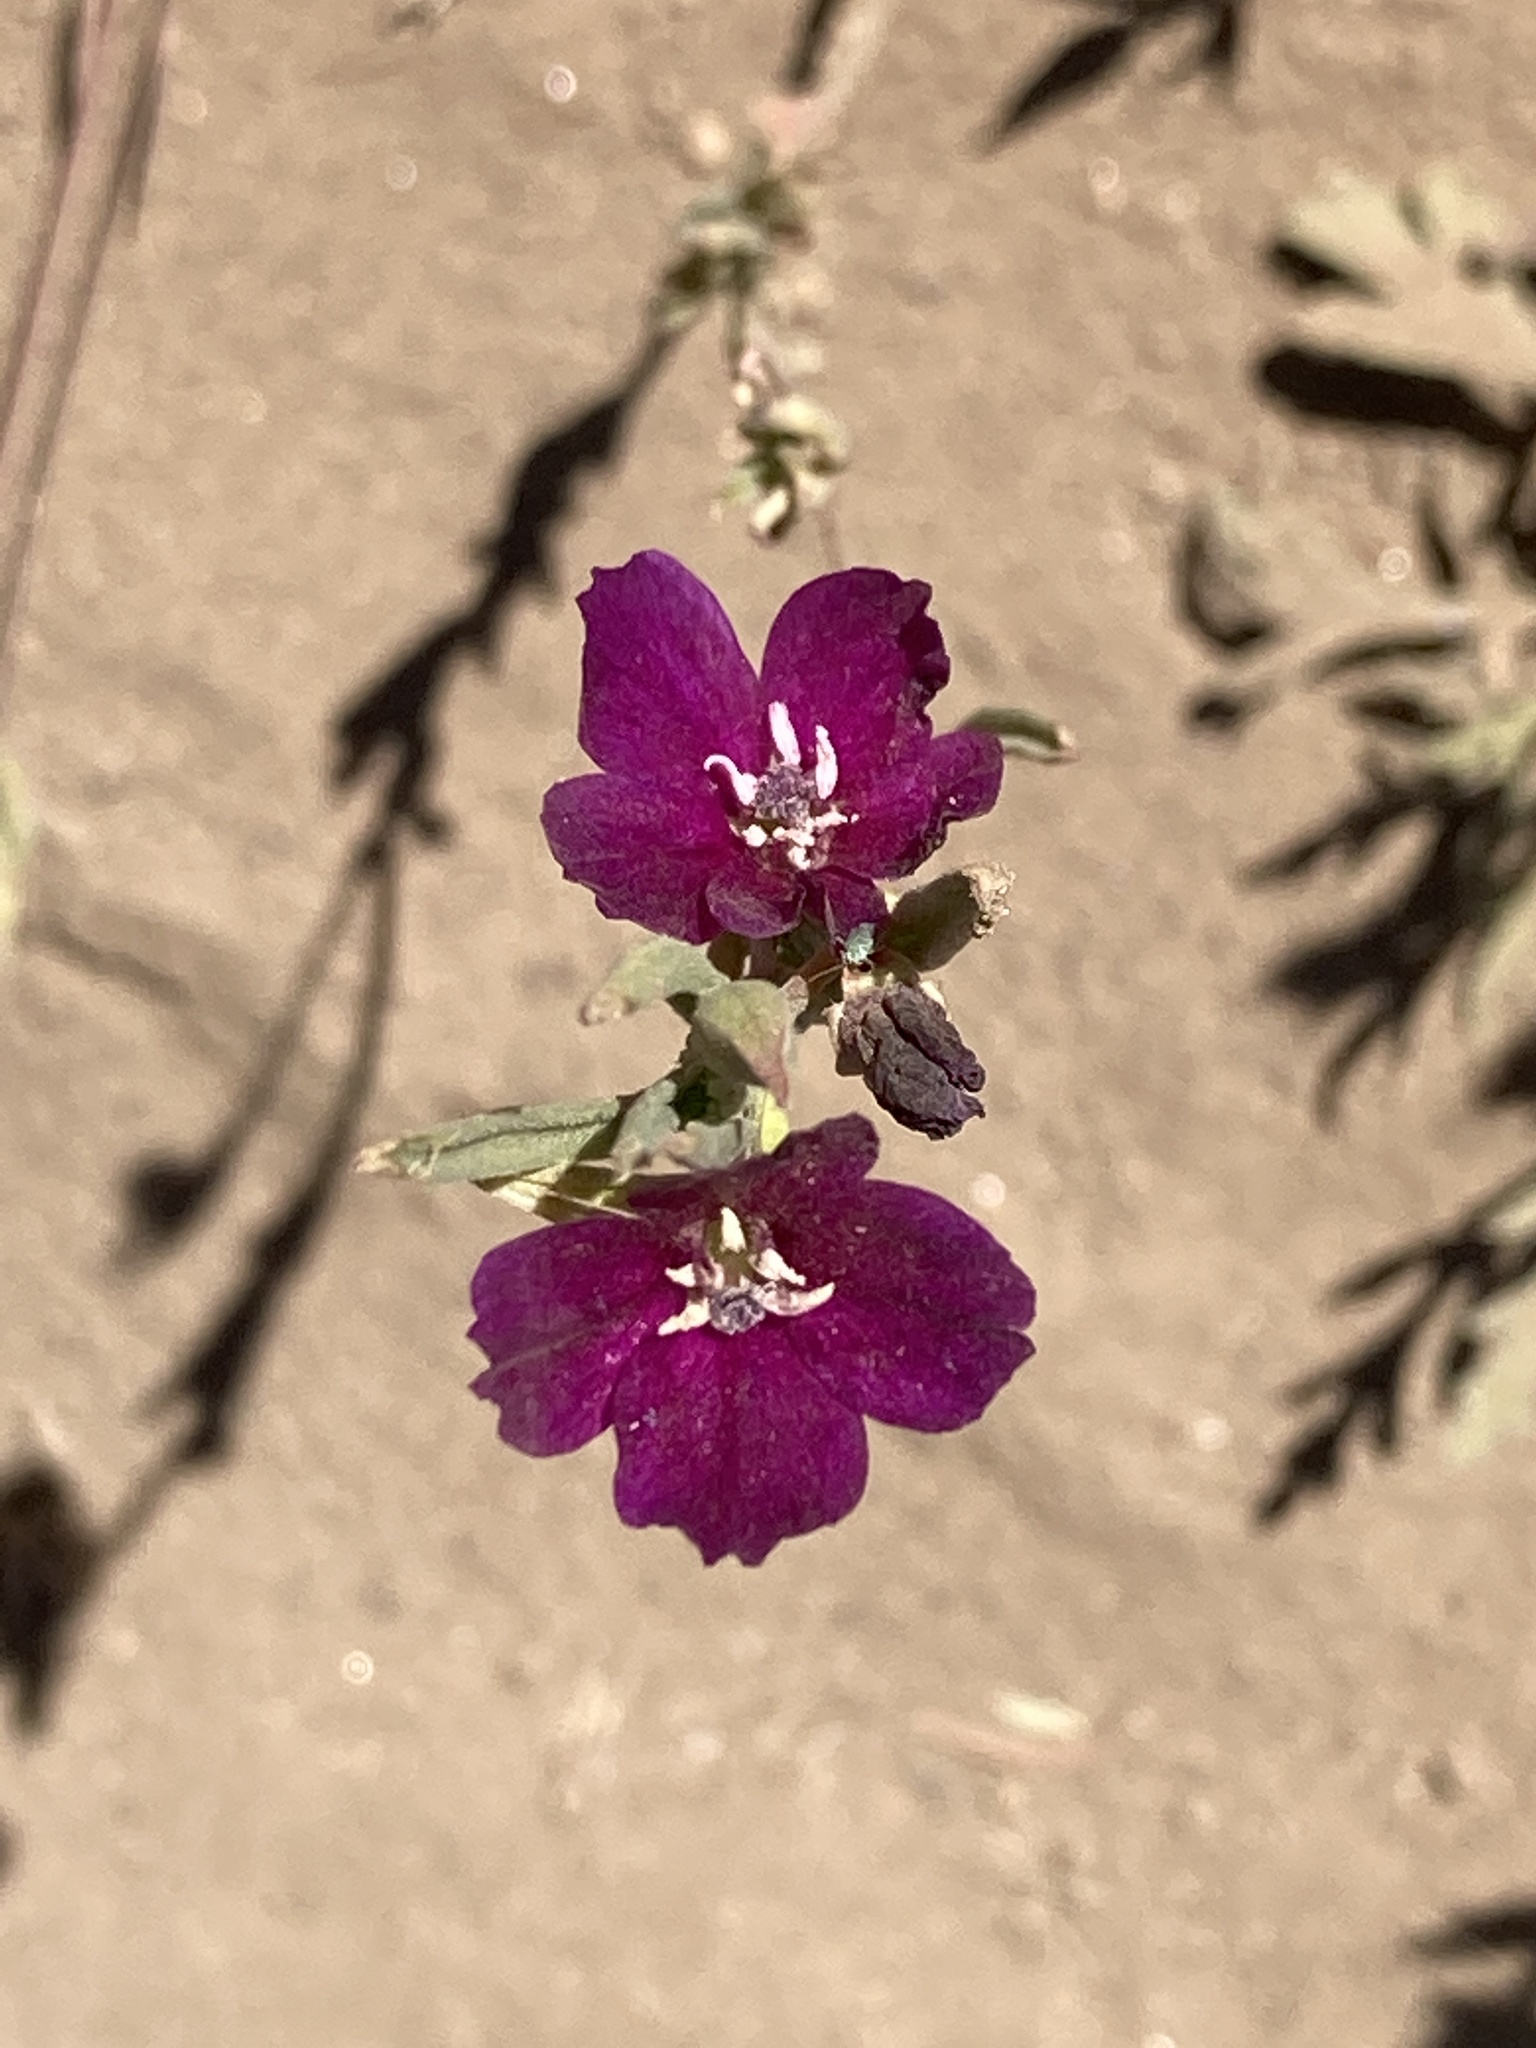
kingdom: Plantae
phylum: Tracheophyta
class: Magnoliopsida
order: Myrtales
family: Onagraceae
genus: Clarkia
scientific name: Clarkia purpurea
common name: Purple clarkia
